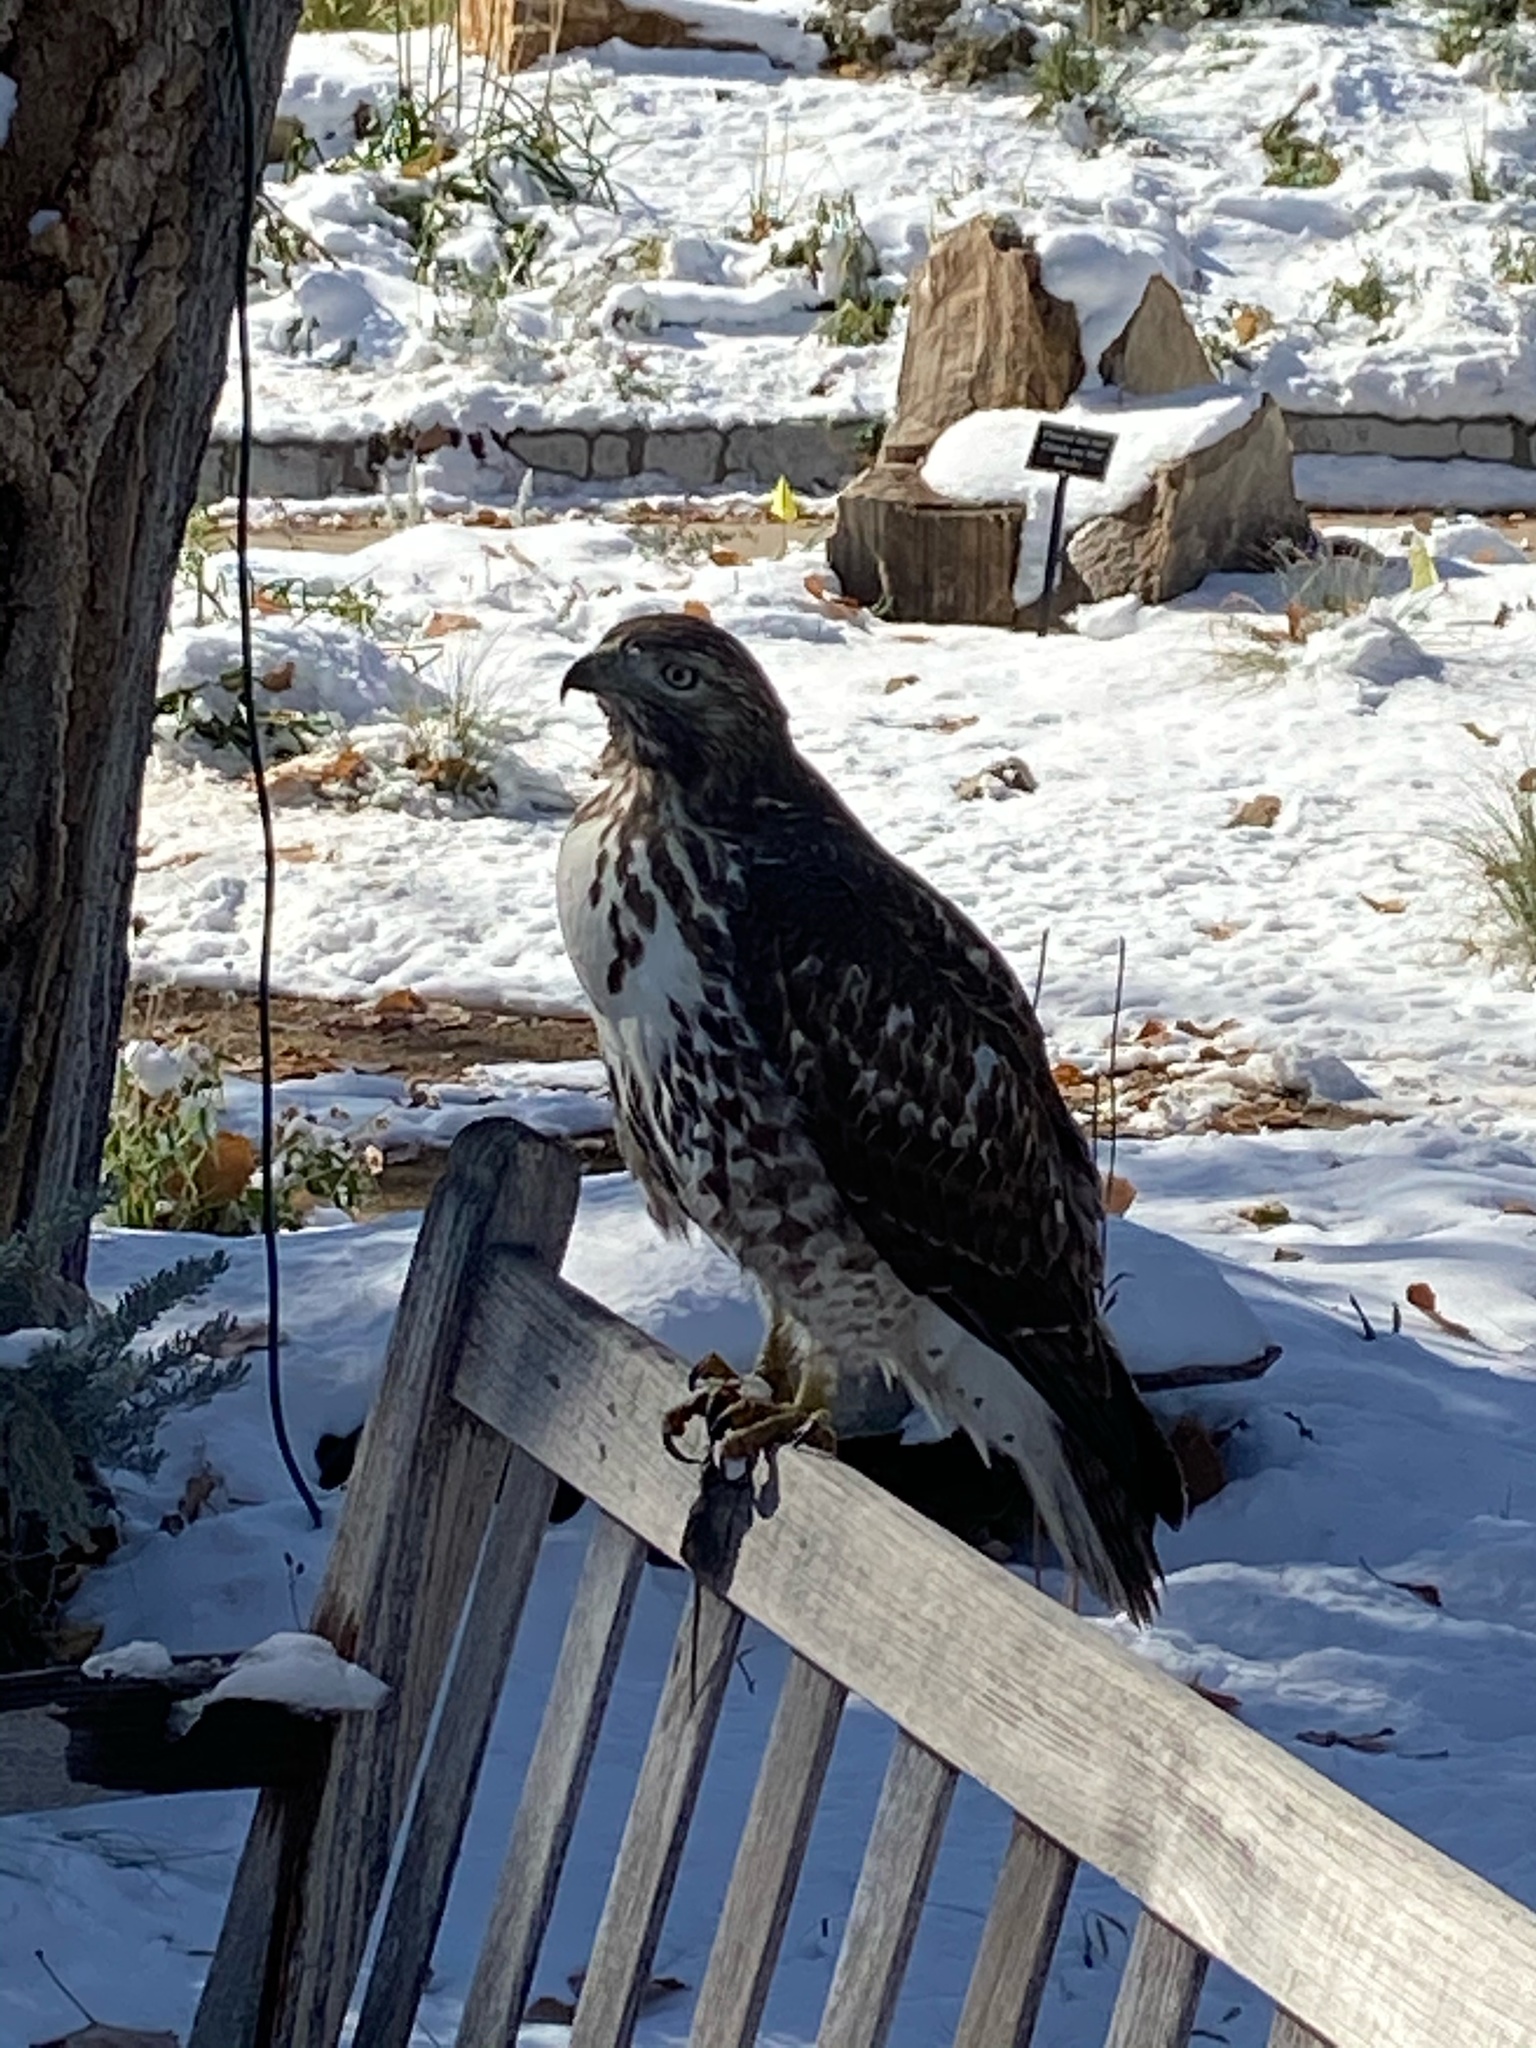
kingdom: Animalia
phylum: Chordata
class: Aves
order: Accipitriformes
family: Accipitridae
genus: Buteo
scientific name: Buteo jamaicensis
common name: Red-tailed hawk
